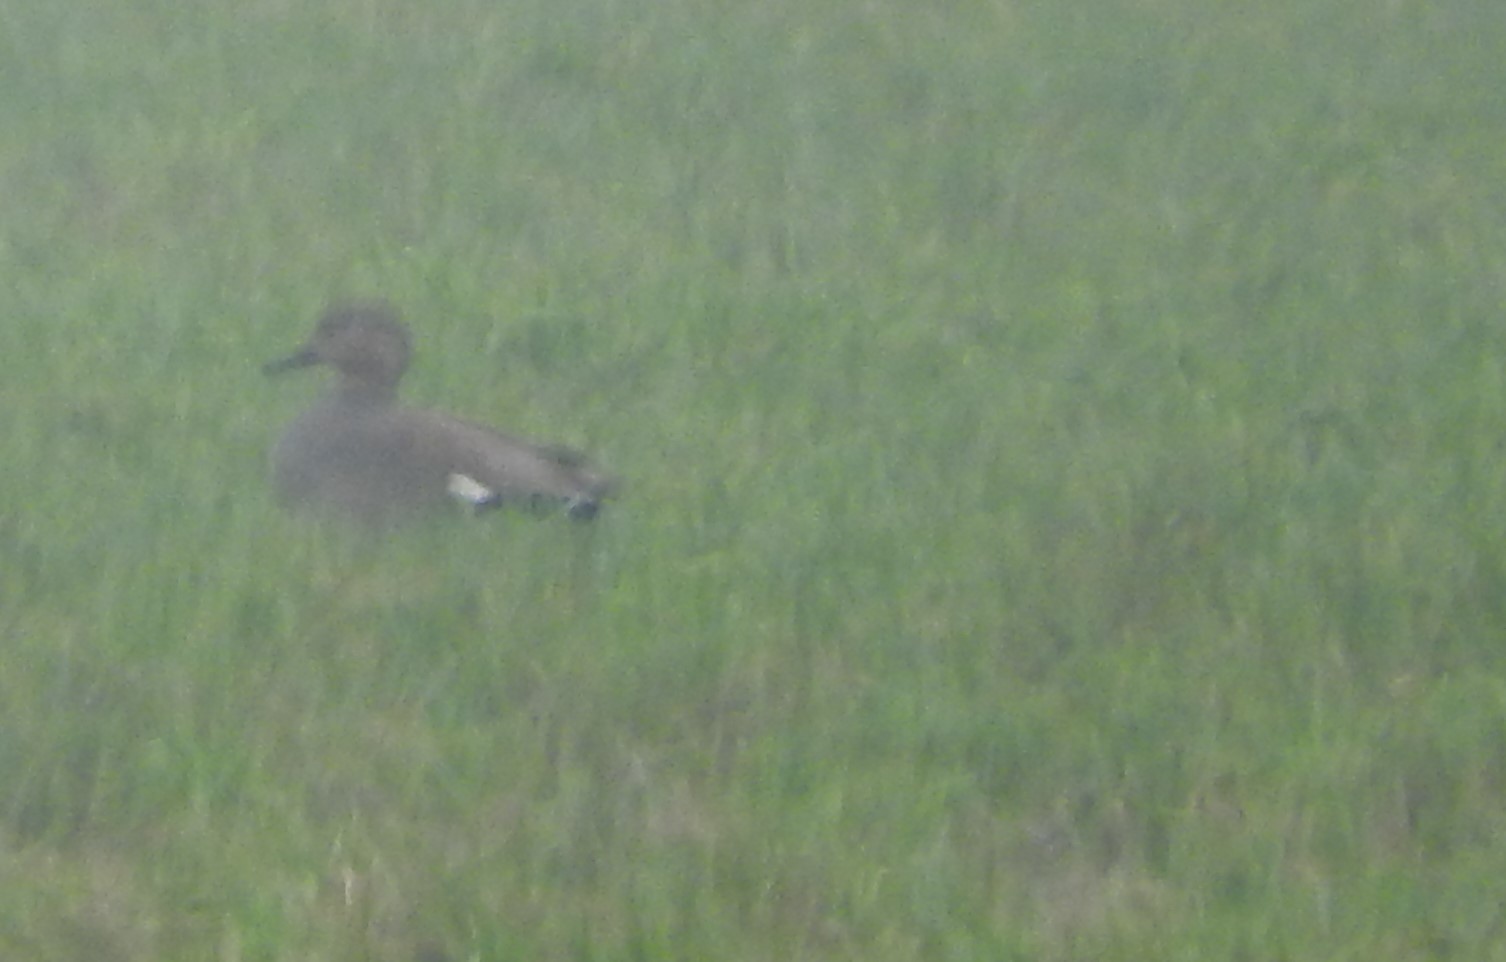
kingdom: Animalia
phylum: Chordata
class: Aves
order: Anseriformes
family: Anatidae
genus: Mareca
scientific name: Mareca strepera
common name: Gadwall
